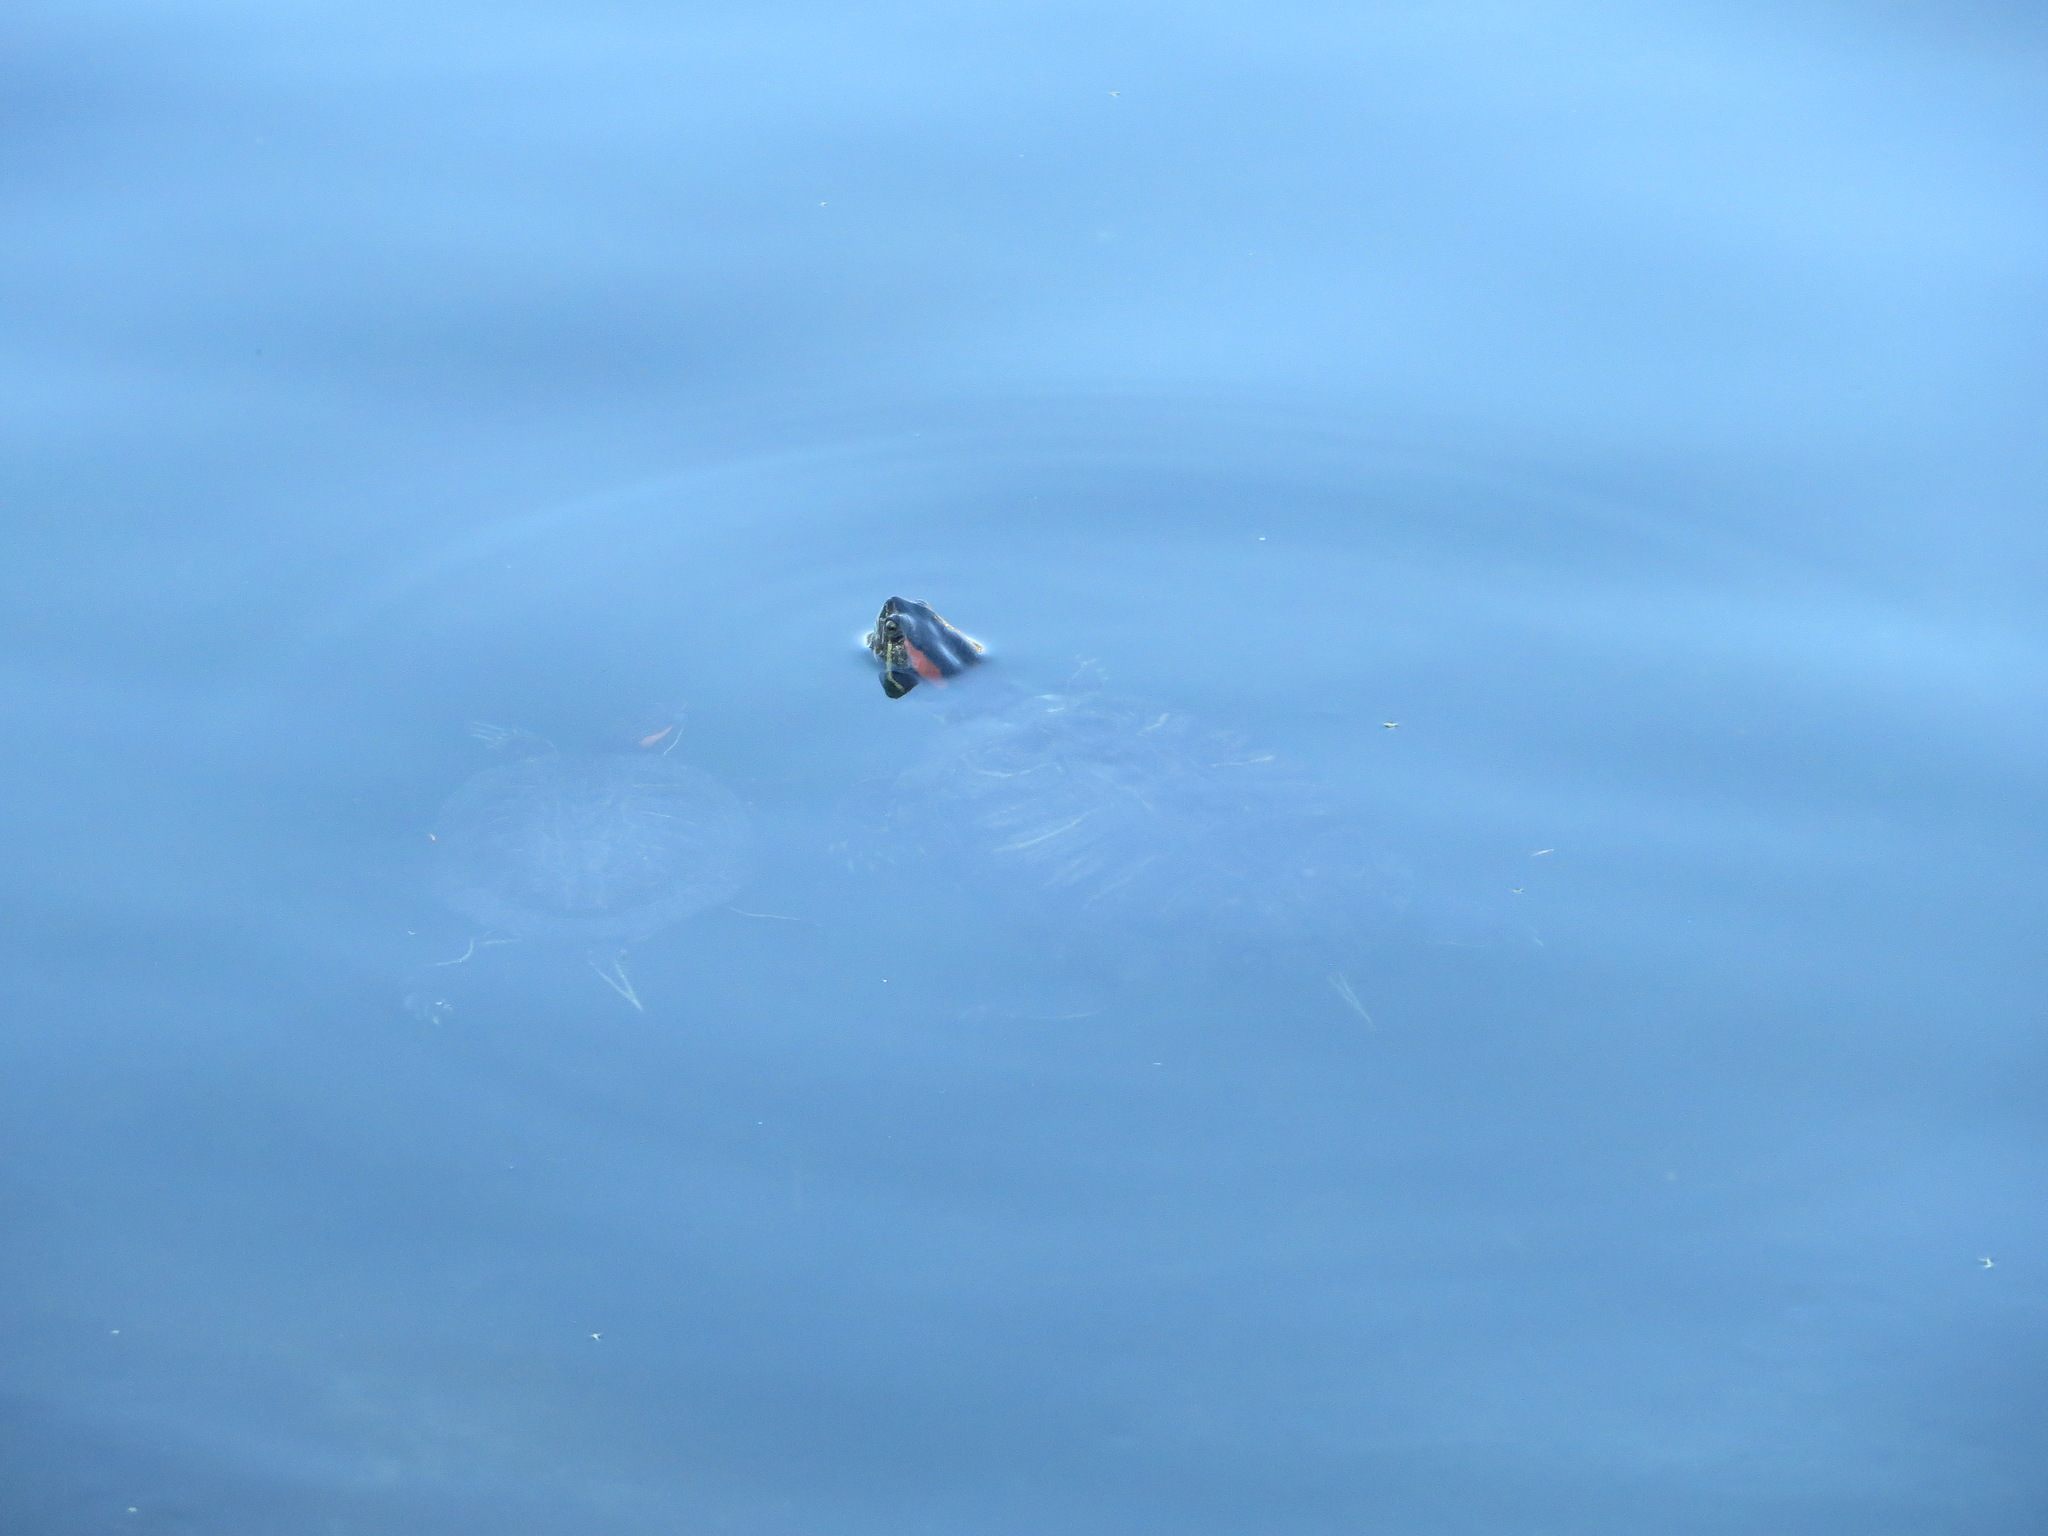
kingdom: Animalia
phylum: Chordata
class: Testudines
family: Emydidae
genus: Trachemys
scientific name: Trachemys scripta
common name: Slider
